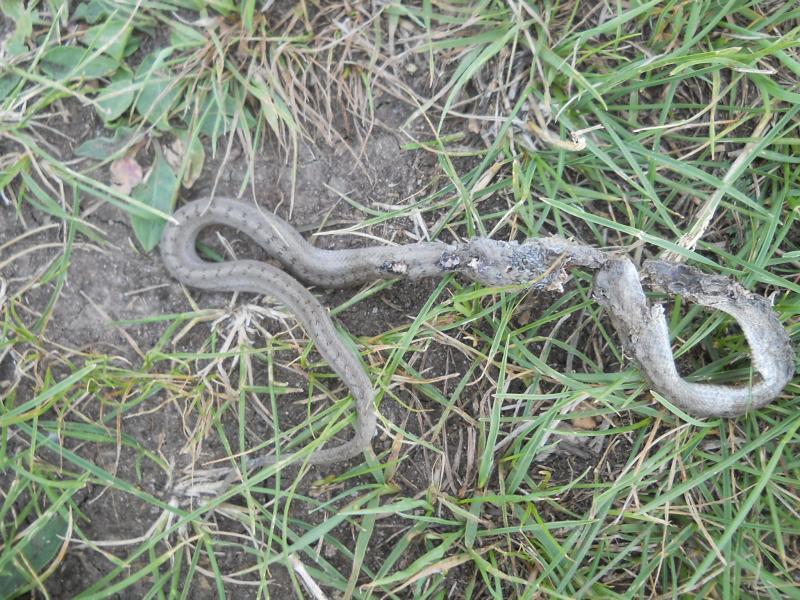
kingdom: Animalia
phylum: Chordata
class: Squamata
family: Colubridae
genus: Coronella
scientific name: Coronella austriaca
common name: Smooth snake
